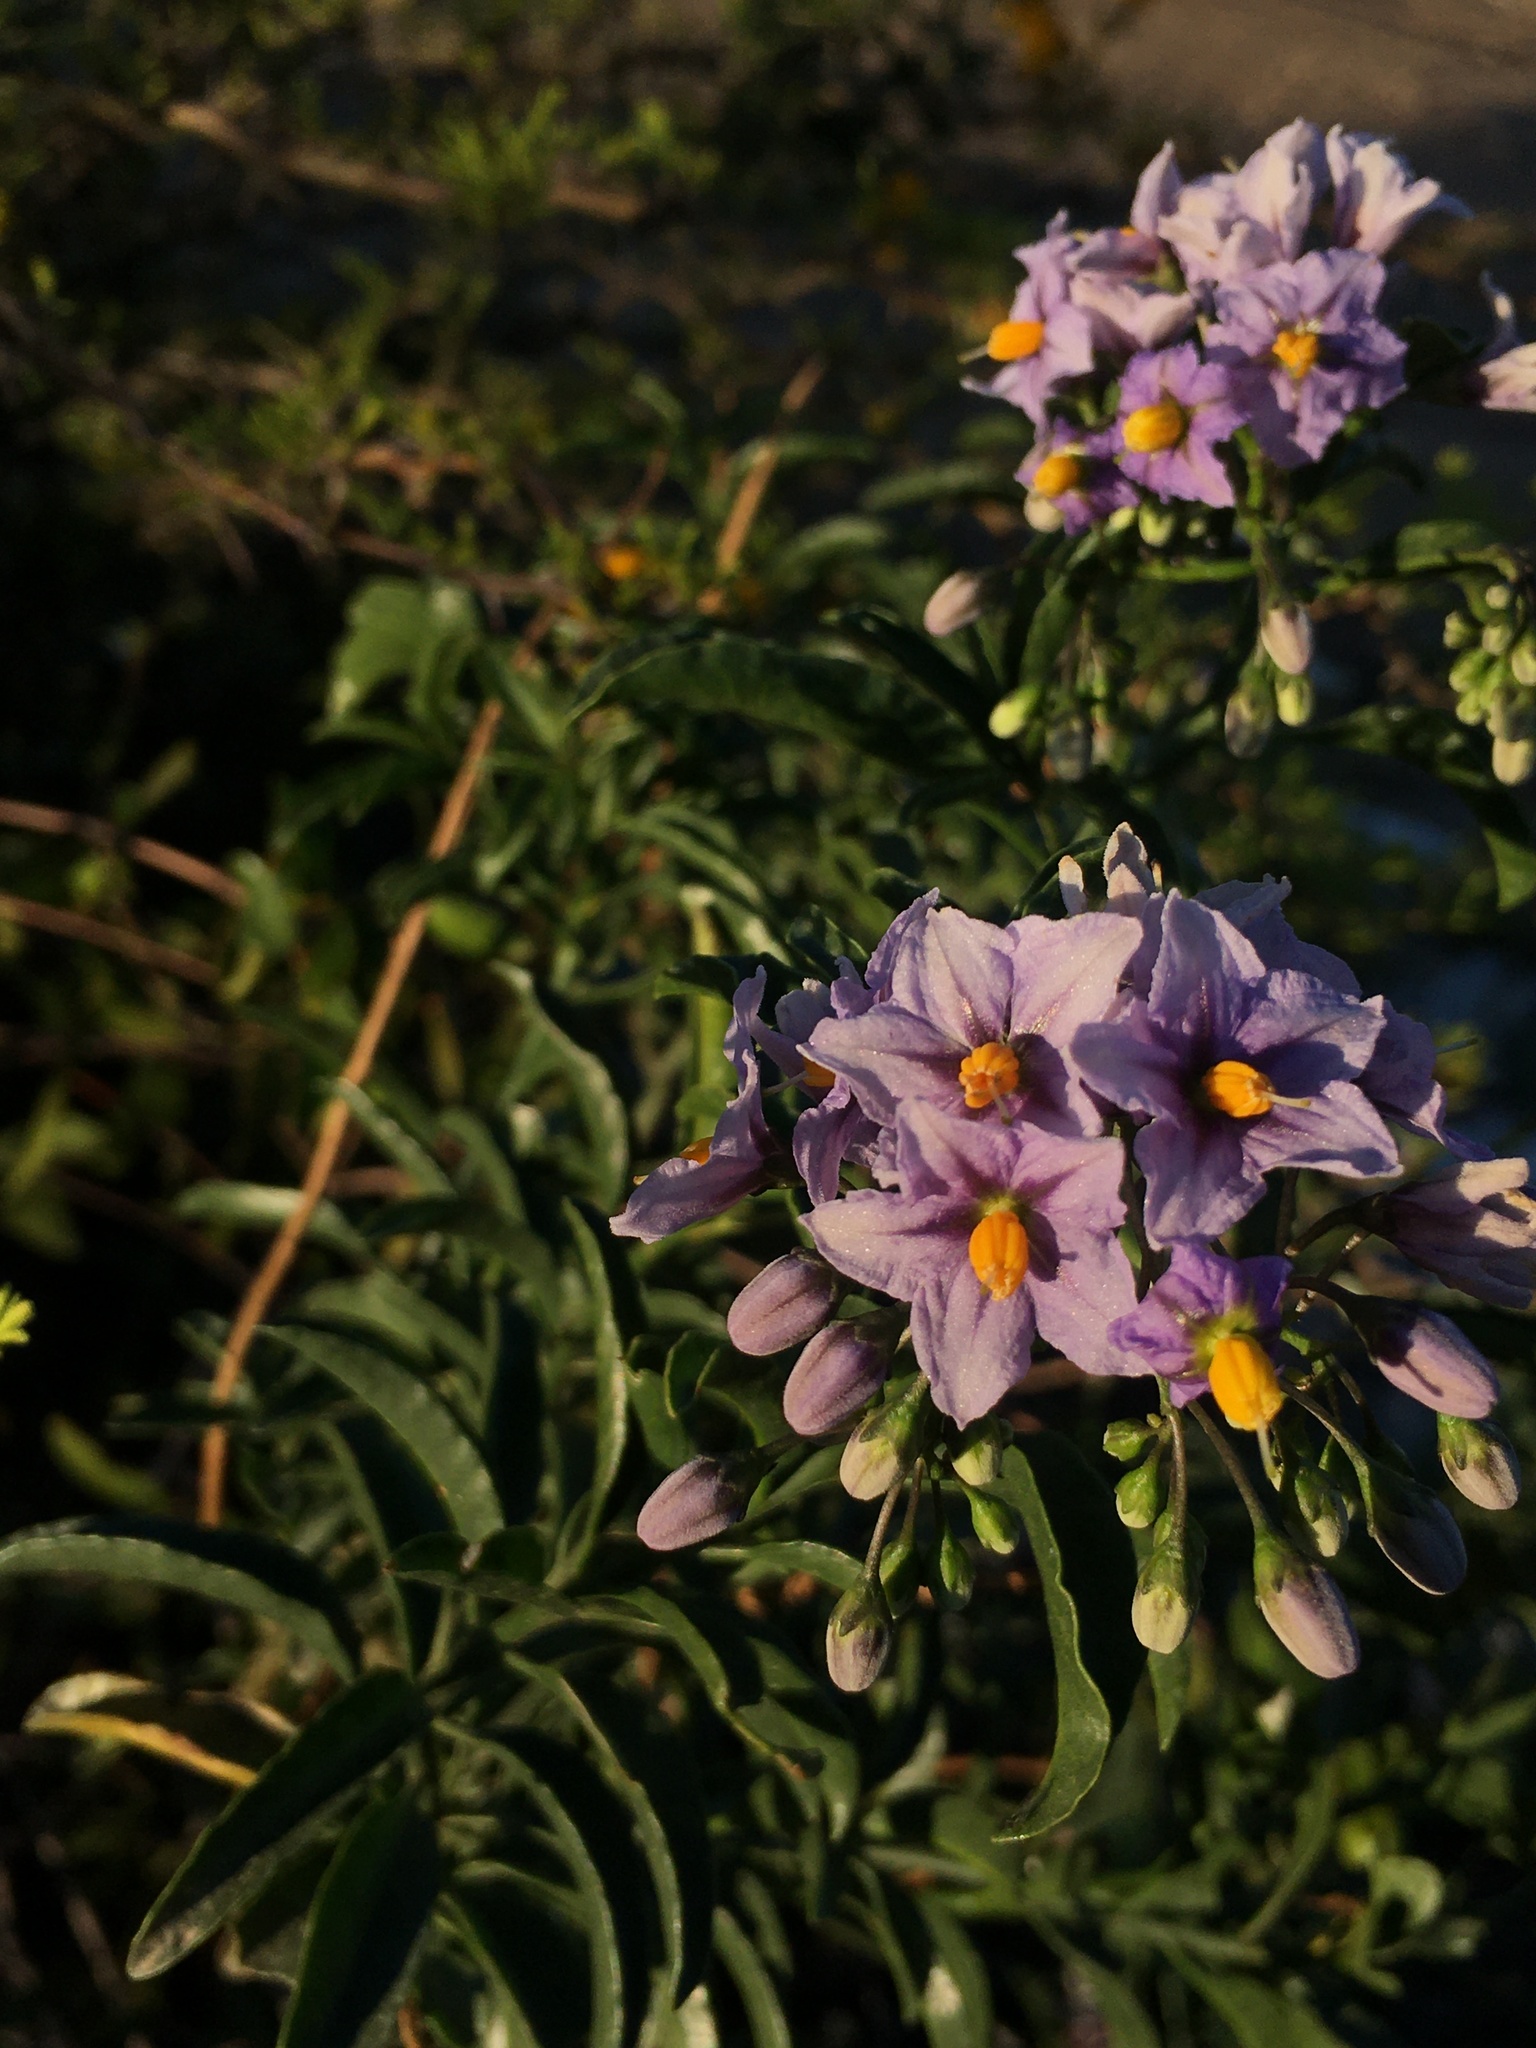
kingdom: Plantae
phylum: Tracheophyta
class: Magnoliopsida
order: Solanales
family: Solanaceae
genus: Solanum
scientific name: Solanum crispum
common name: Chilean nightshade
